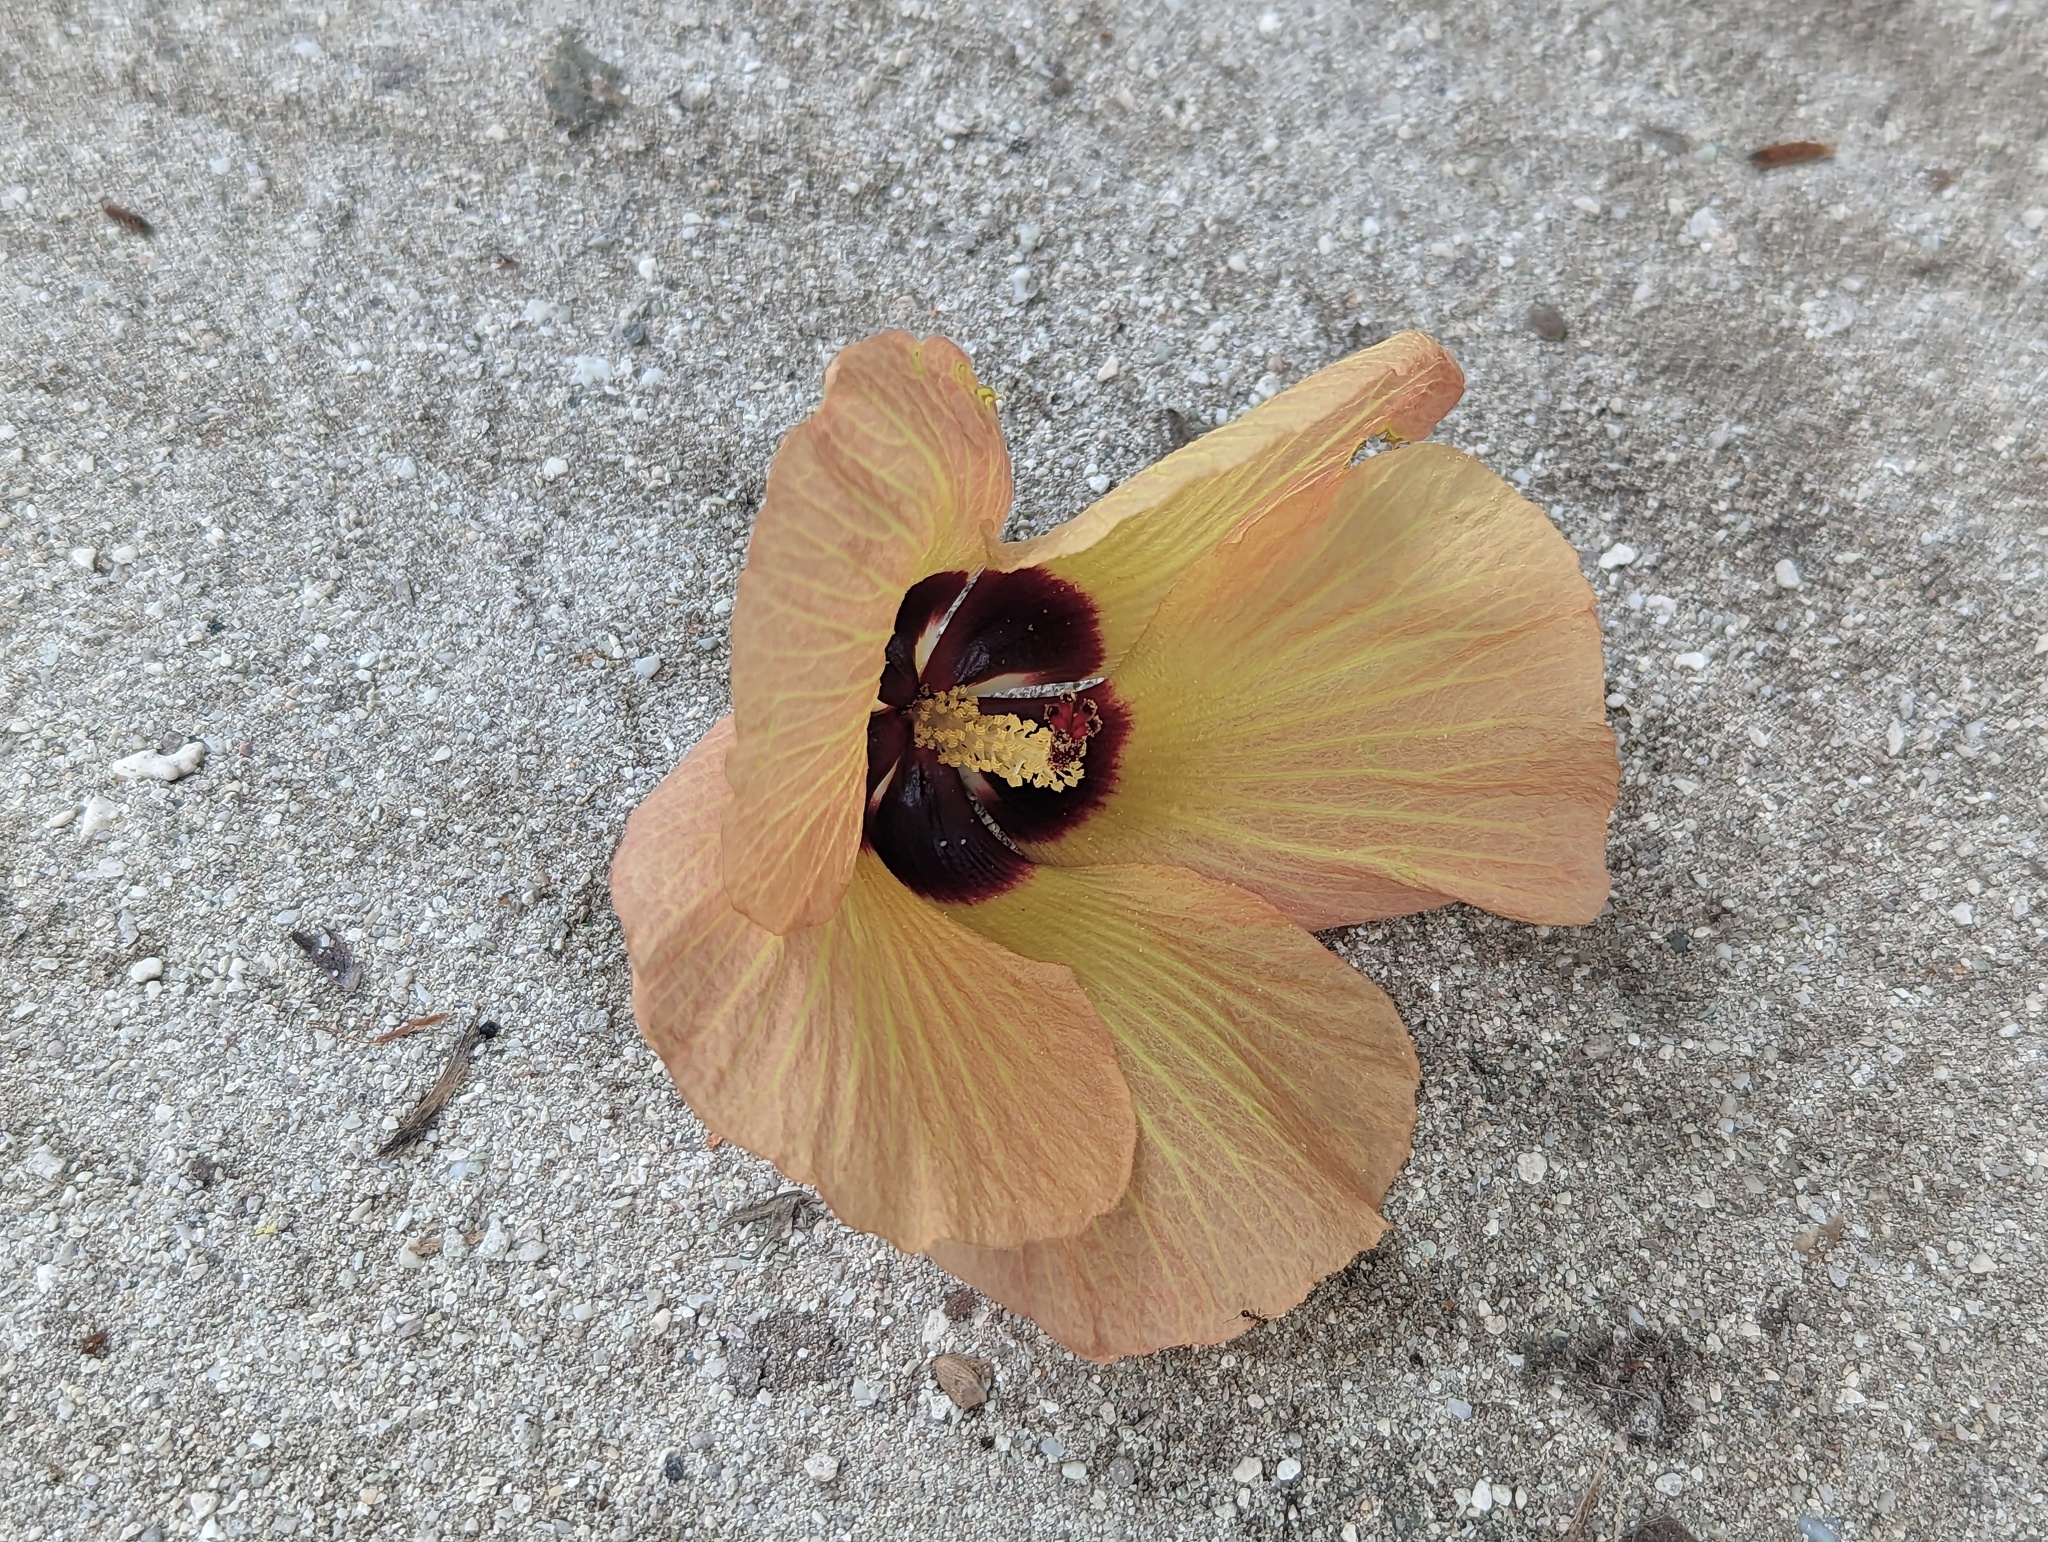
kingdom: Plantae
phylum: Tracheophyta
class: Magnoliopsida
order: Malvales
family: Malvaceae
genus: Talipariti
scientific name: Talipariti tiliaceum
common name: Sea hibiscus
